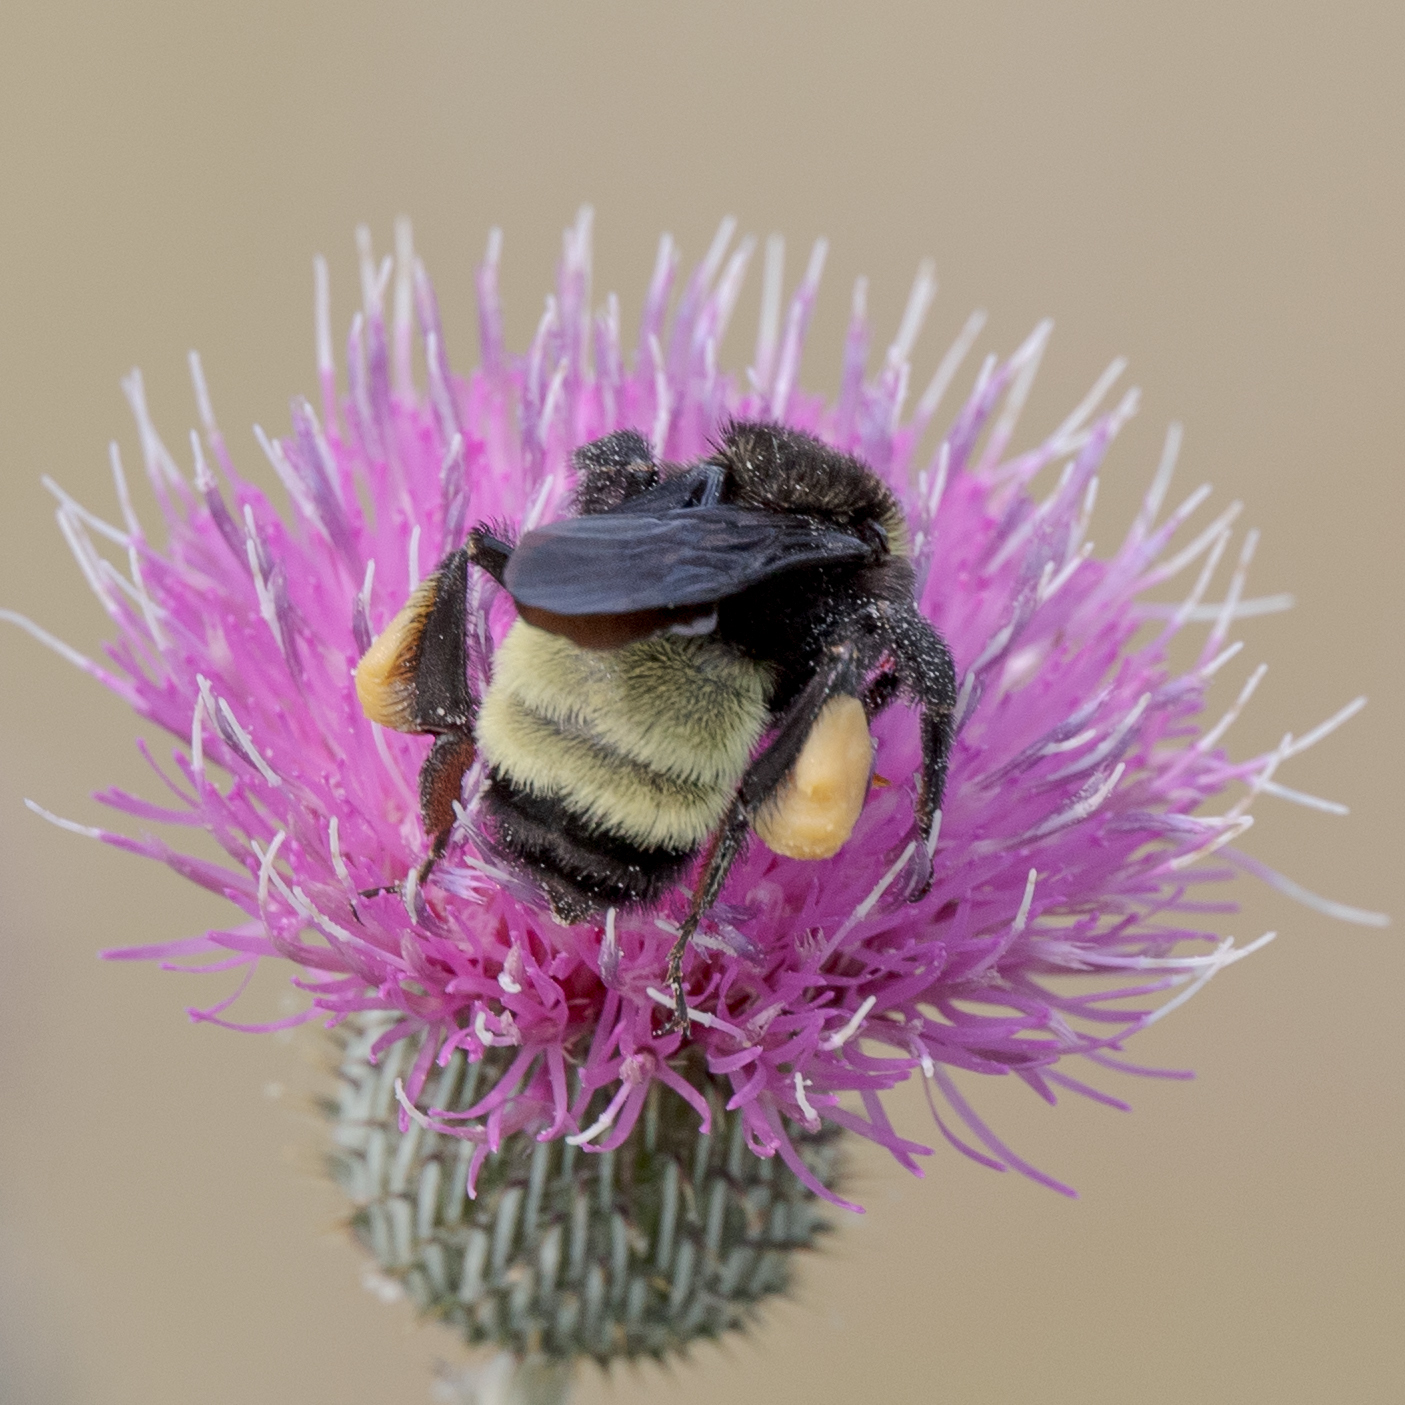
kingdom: Animalia
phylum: Arthropoda
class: Insecta
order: Hymenoptera
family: Apidae
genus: Bombus
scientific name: Bombus pensylvanicus
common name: Bumble bee
